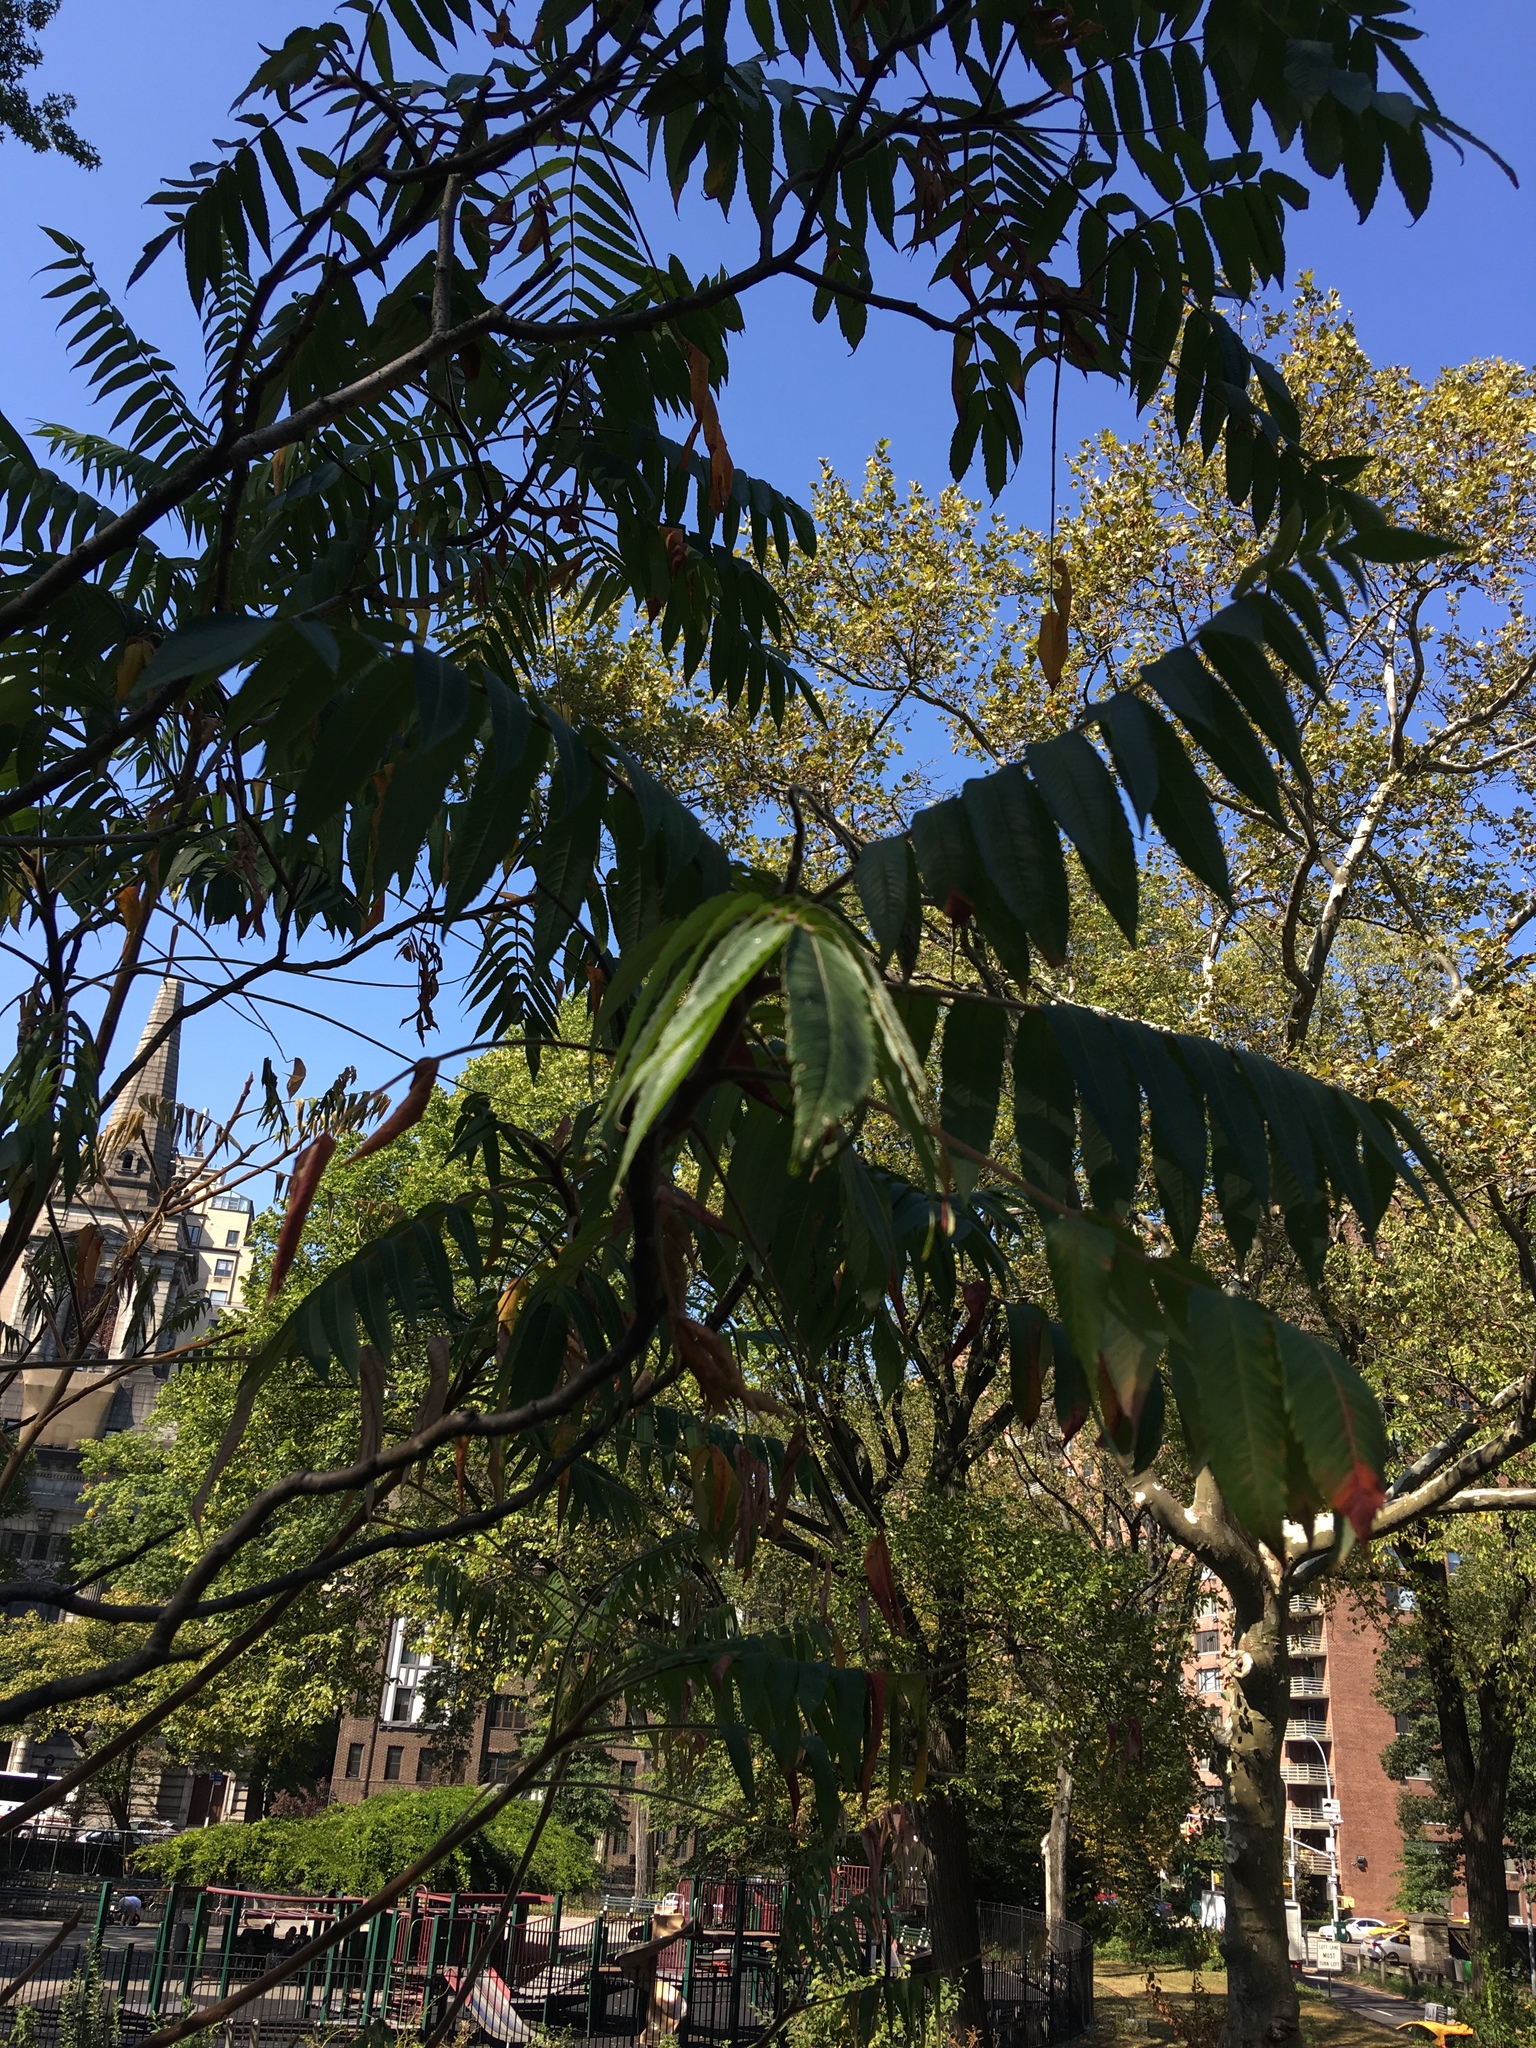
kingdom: Plantae
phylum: Tracheophyta
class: Magnoliopsida
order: Sapindales
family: Anacardiaceae
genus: Rhus
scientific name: Rhus typhina
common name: Staghorn sumac
